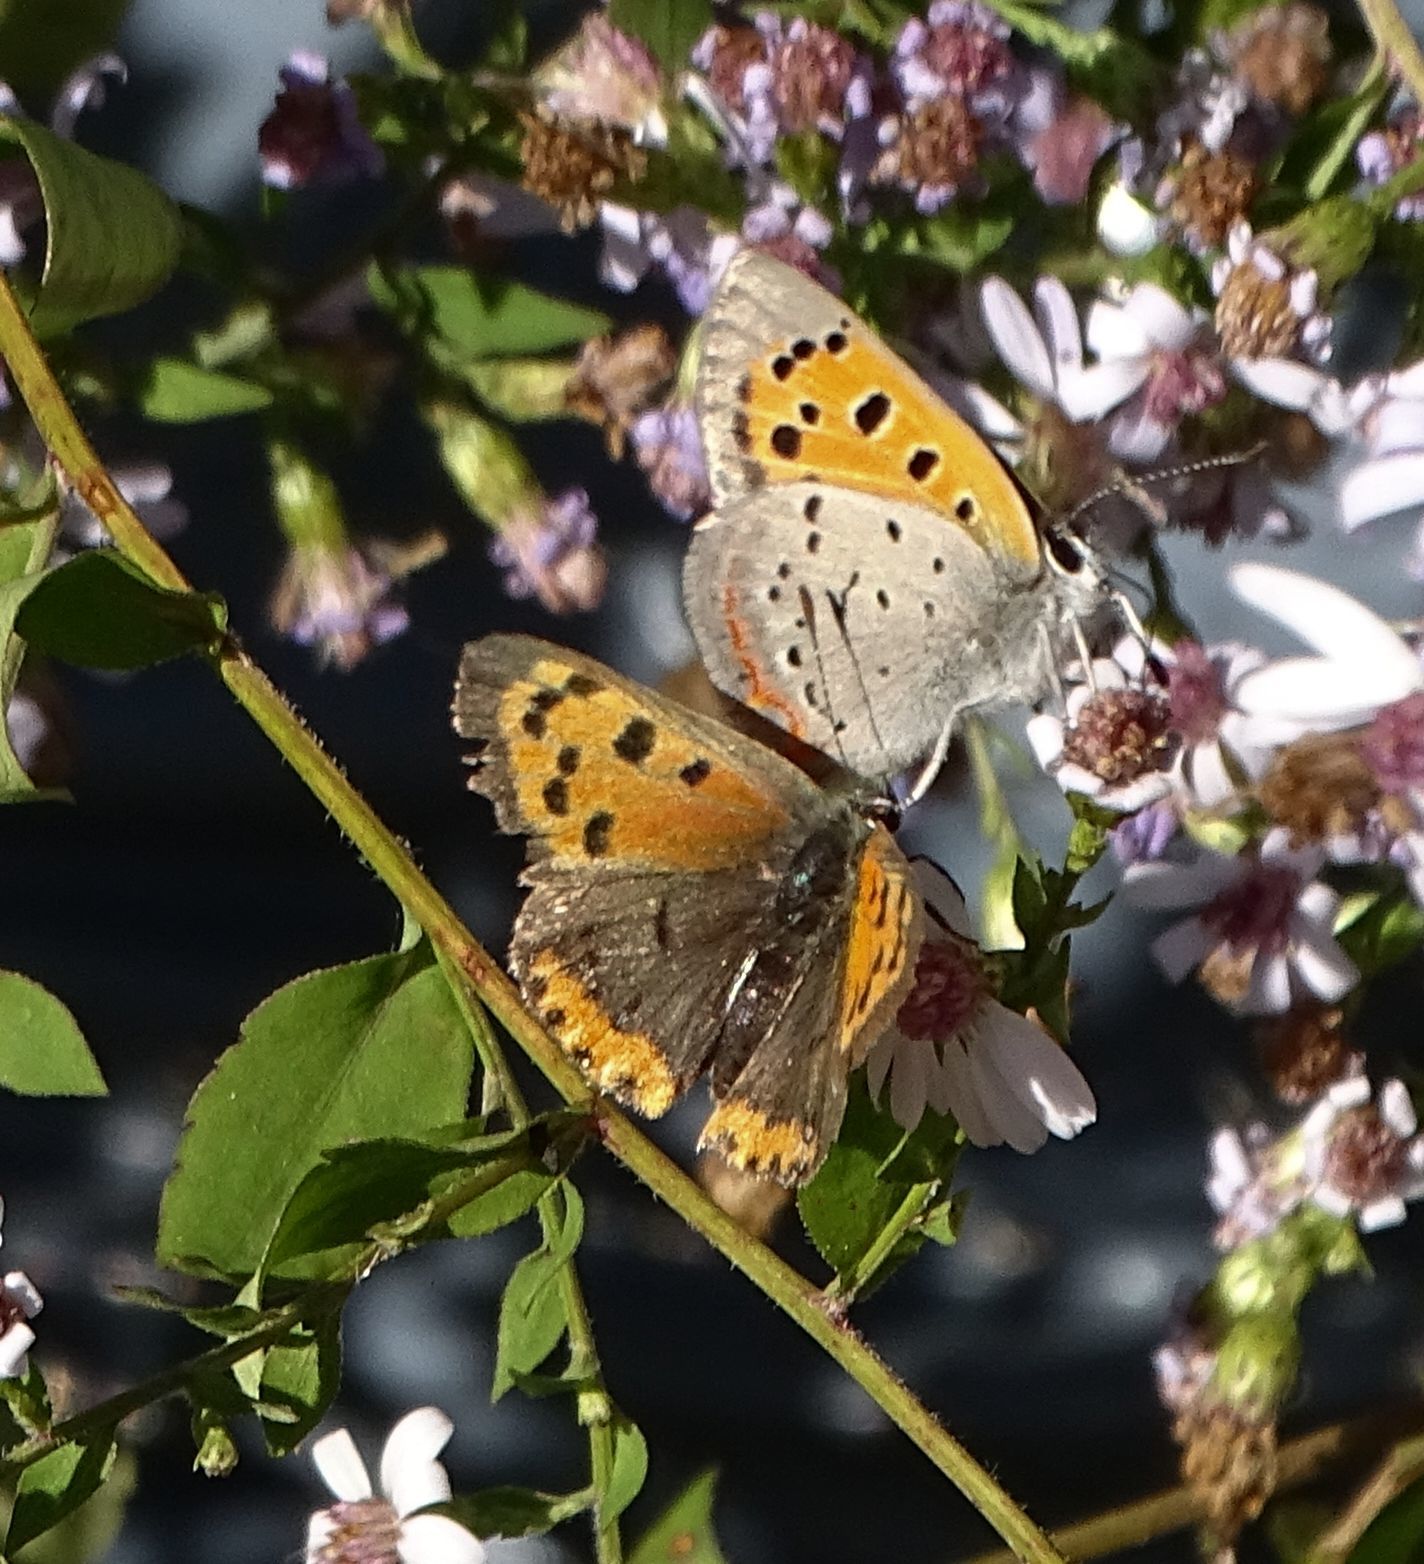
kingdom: Animalia
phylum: Arthropoda
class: Insecta
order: Lepidoptera
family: Lycaenidae
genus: Lycaena
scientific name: Lycaena hypophlaeas
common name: American copper
